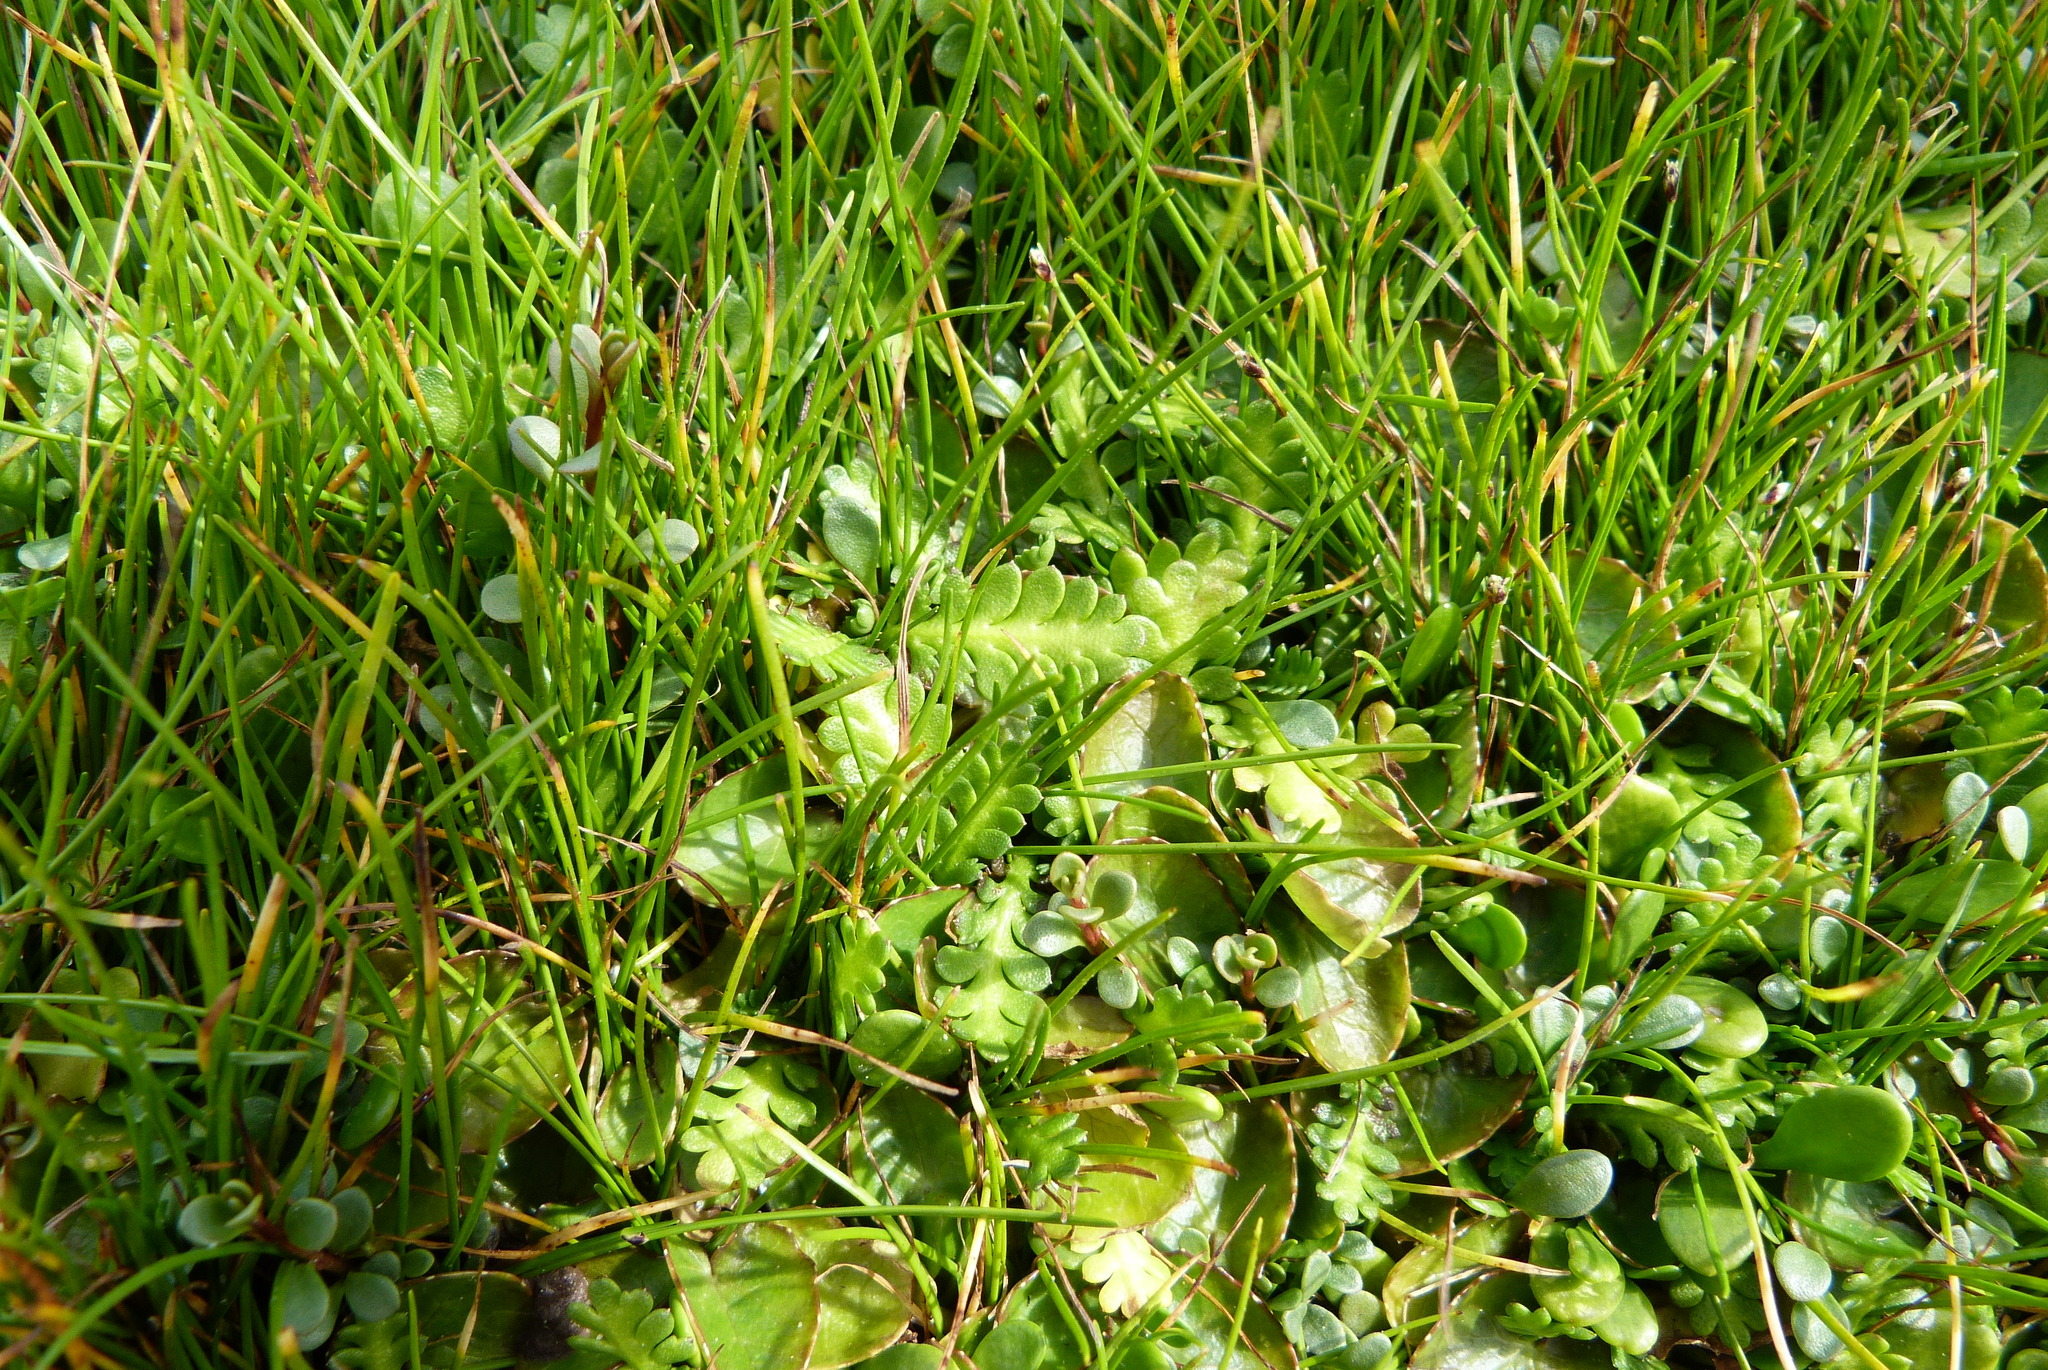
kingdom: Plantae
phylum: Tracheophyta
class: Magnoliopsida
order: Asterales
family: Asteraceae
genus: Leptinella
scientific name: Leptinella dioica
